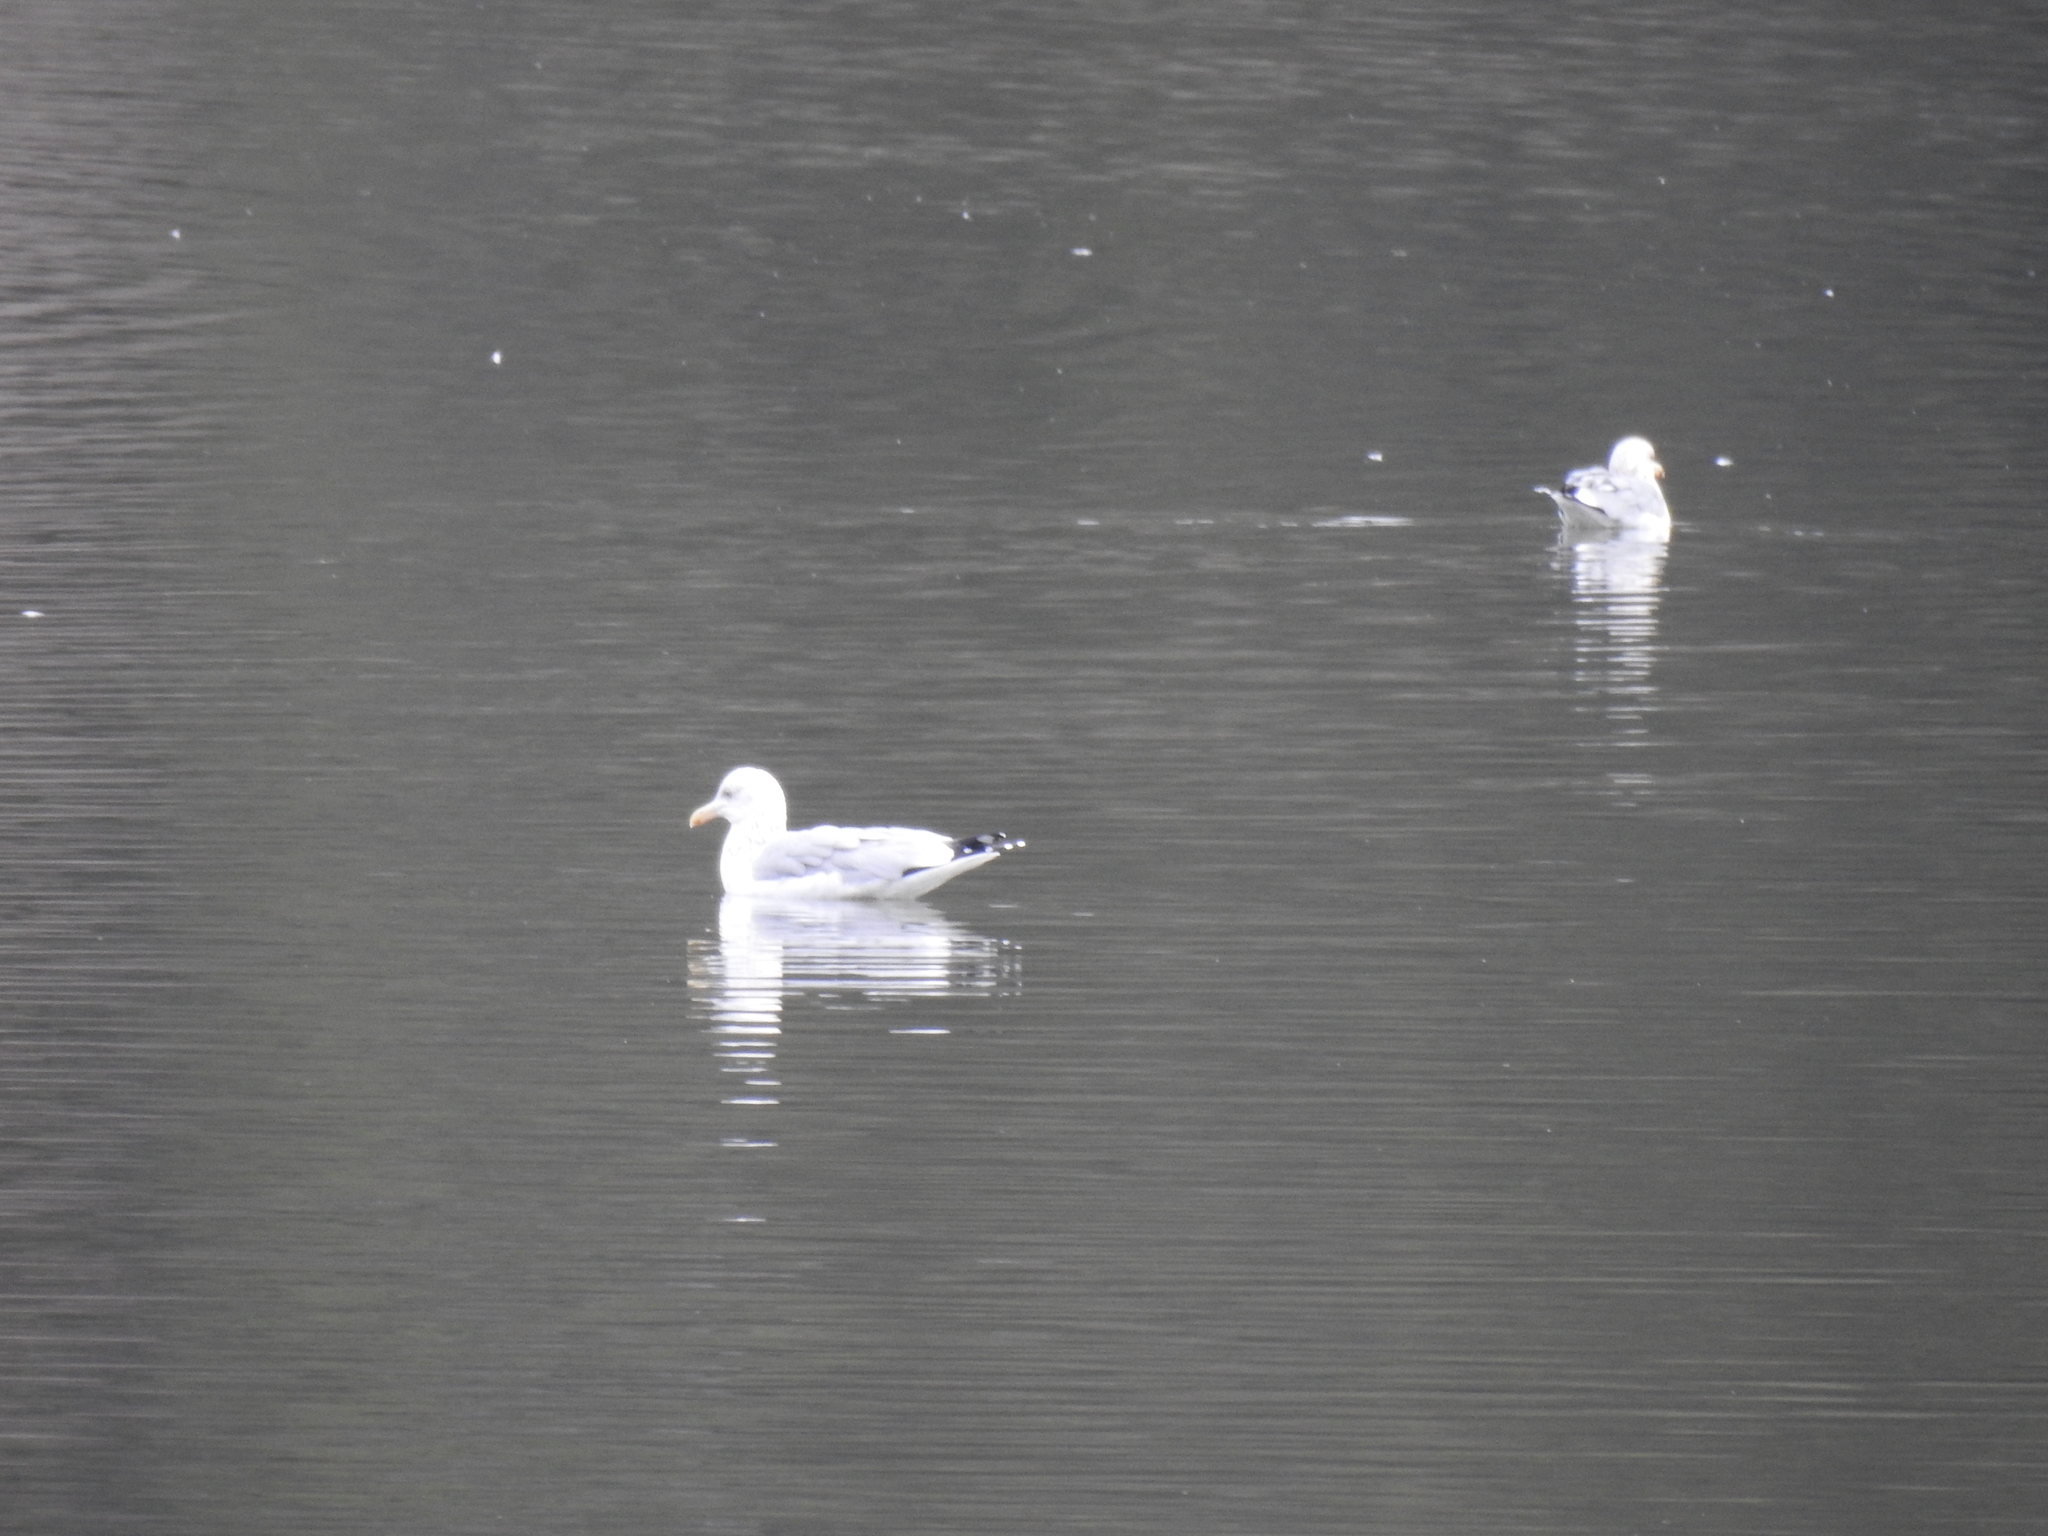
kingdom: Animalia
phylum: Chordata
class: Aves
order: Charadriiformes
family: Laridae
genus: Larus
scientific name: Larus argentatus
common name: Herring gull
